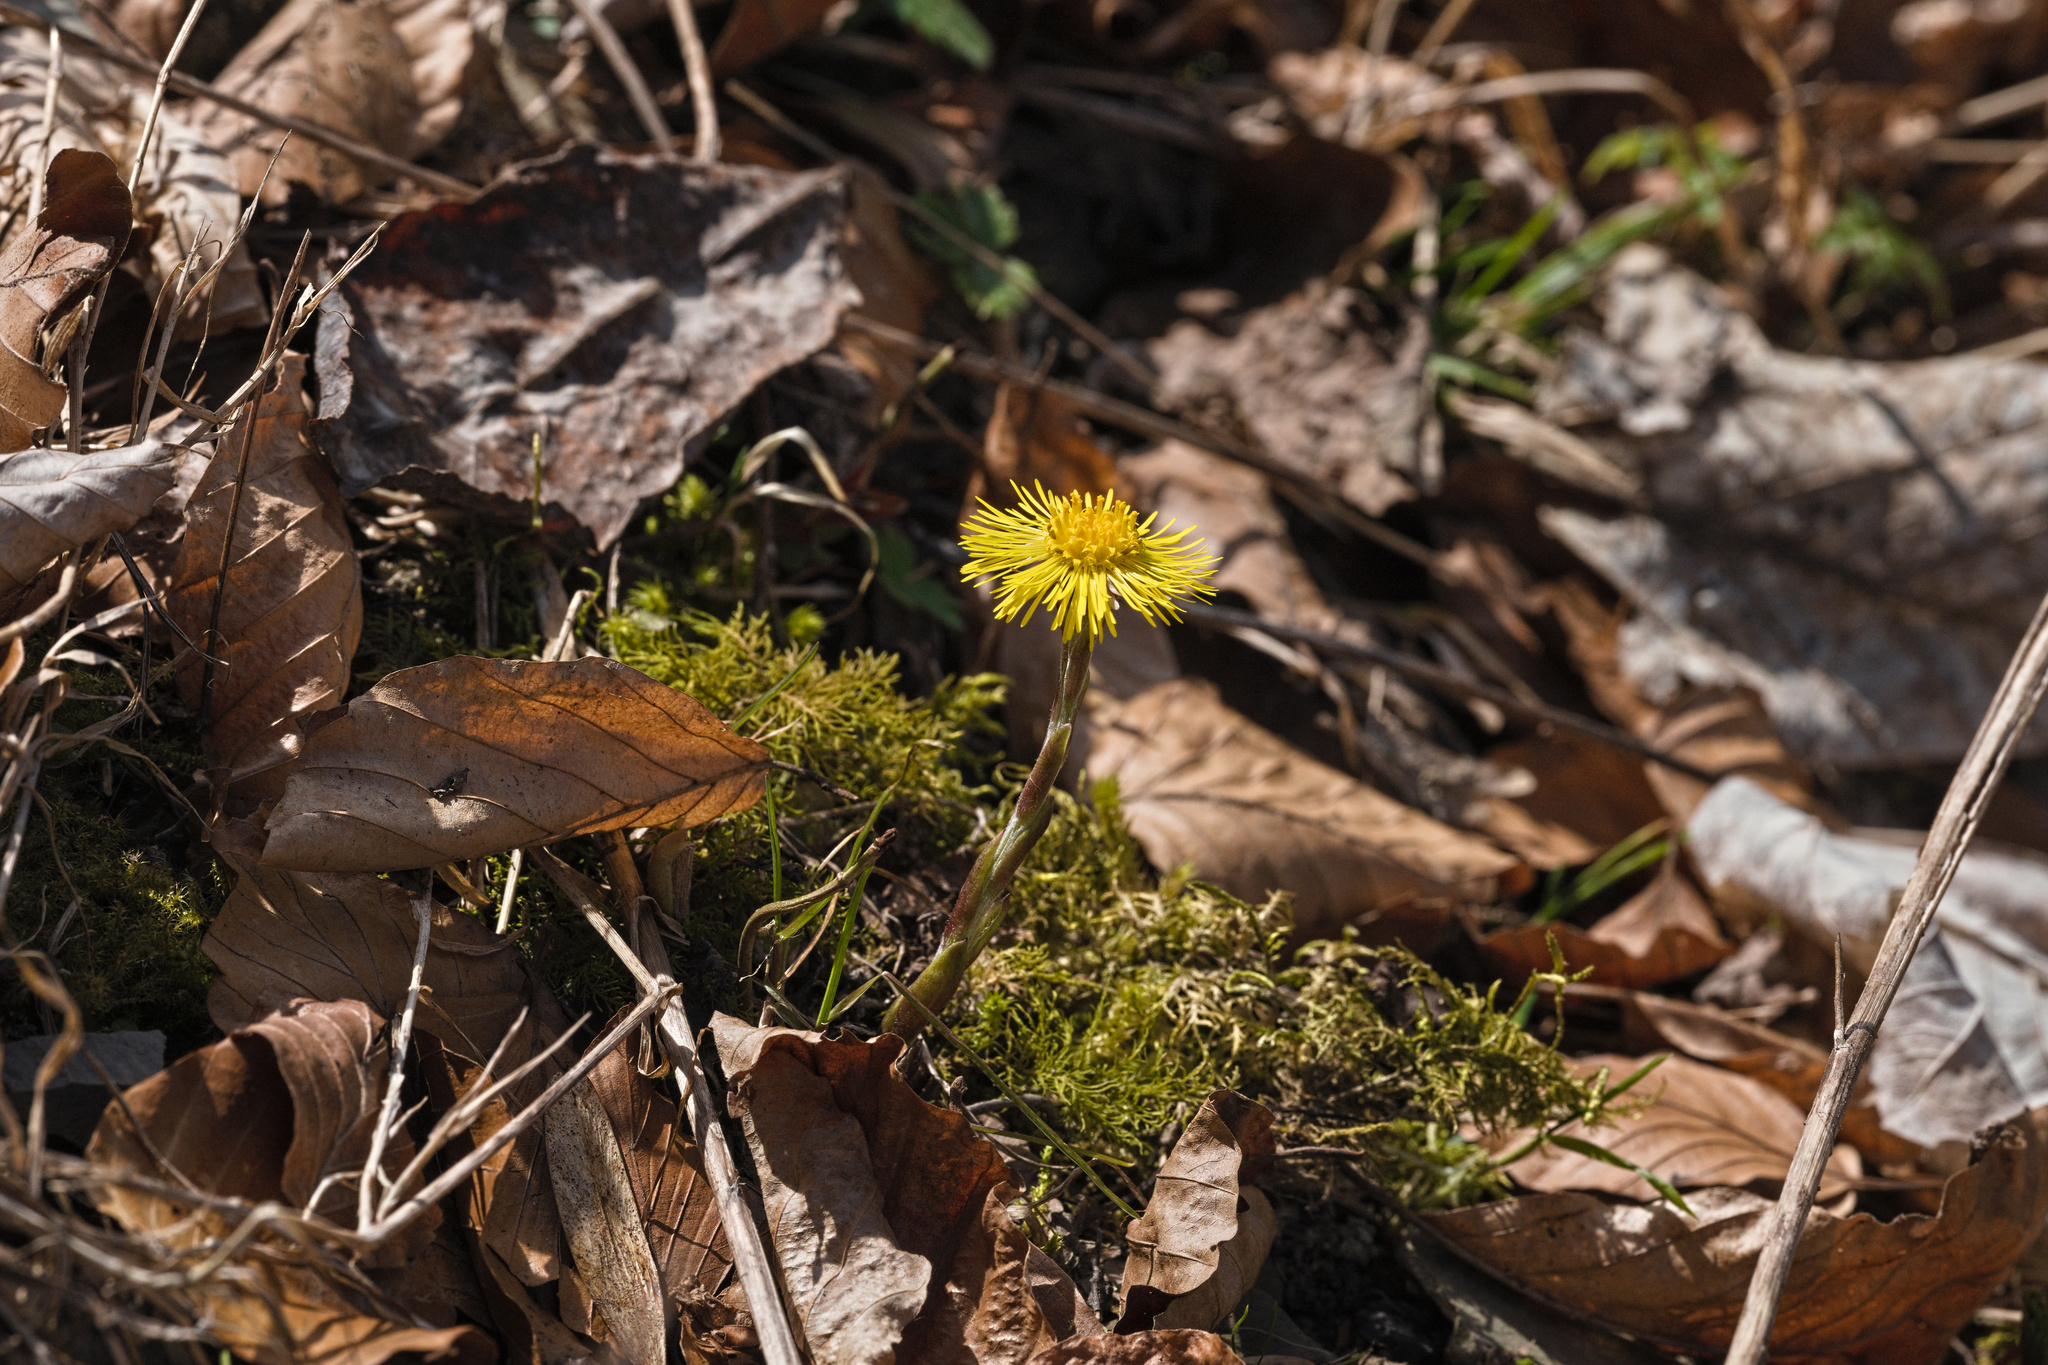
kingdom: Plantae
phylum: Tracheophyta
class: Magnoliopsida
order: Asterales
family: Asteraceae
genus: Tussilago
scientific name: Tussilago farfara
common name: Coltsfoot
